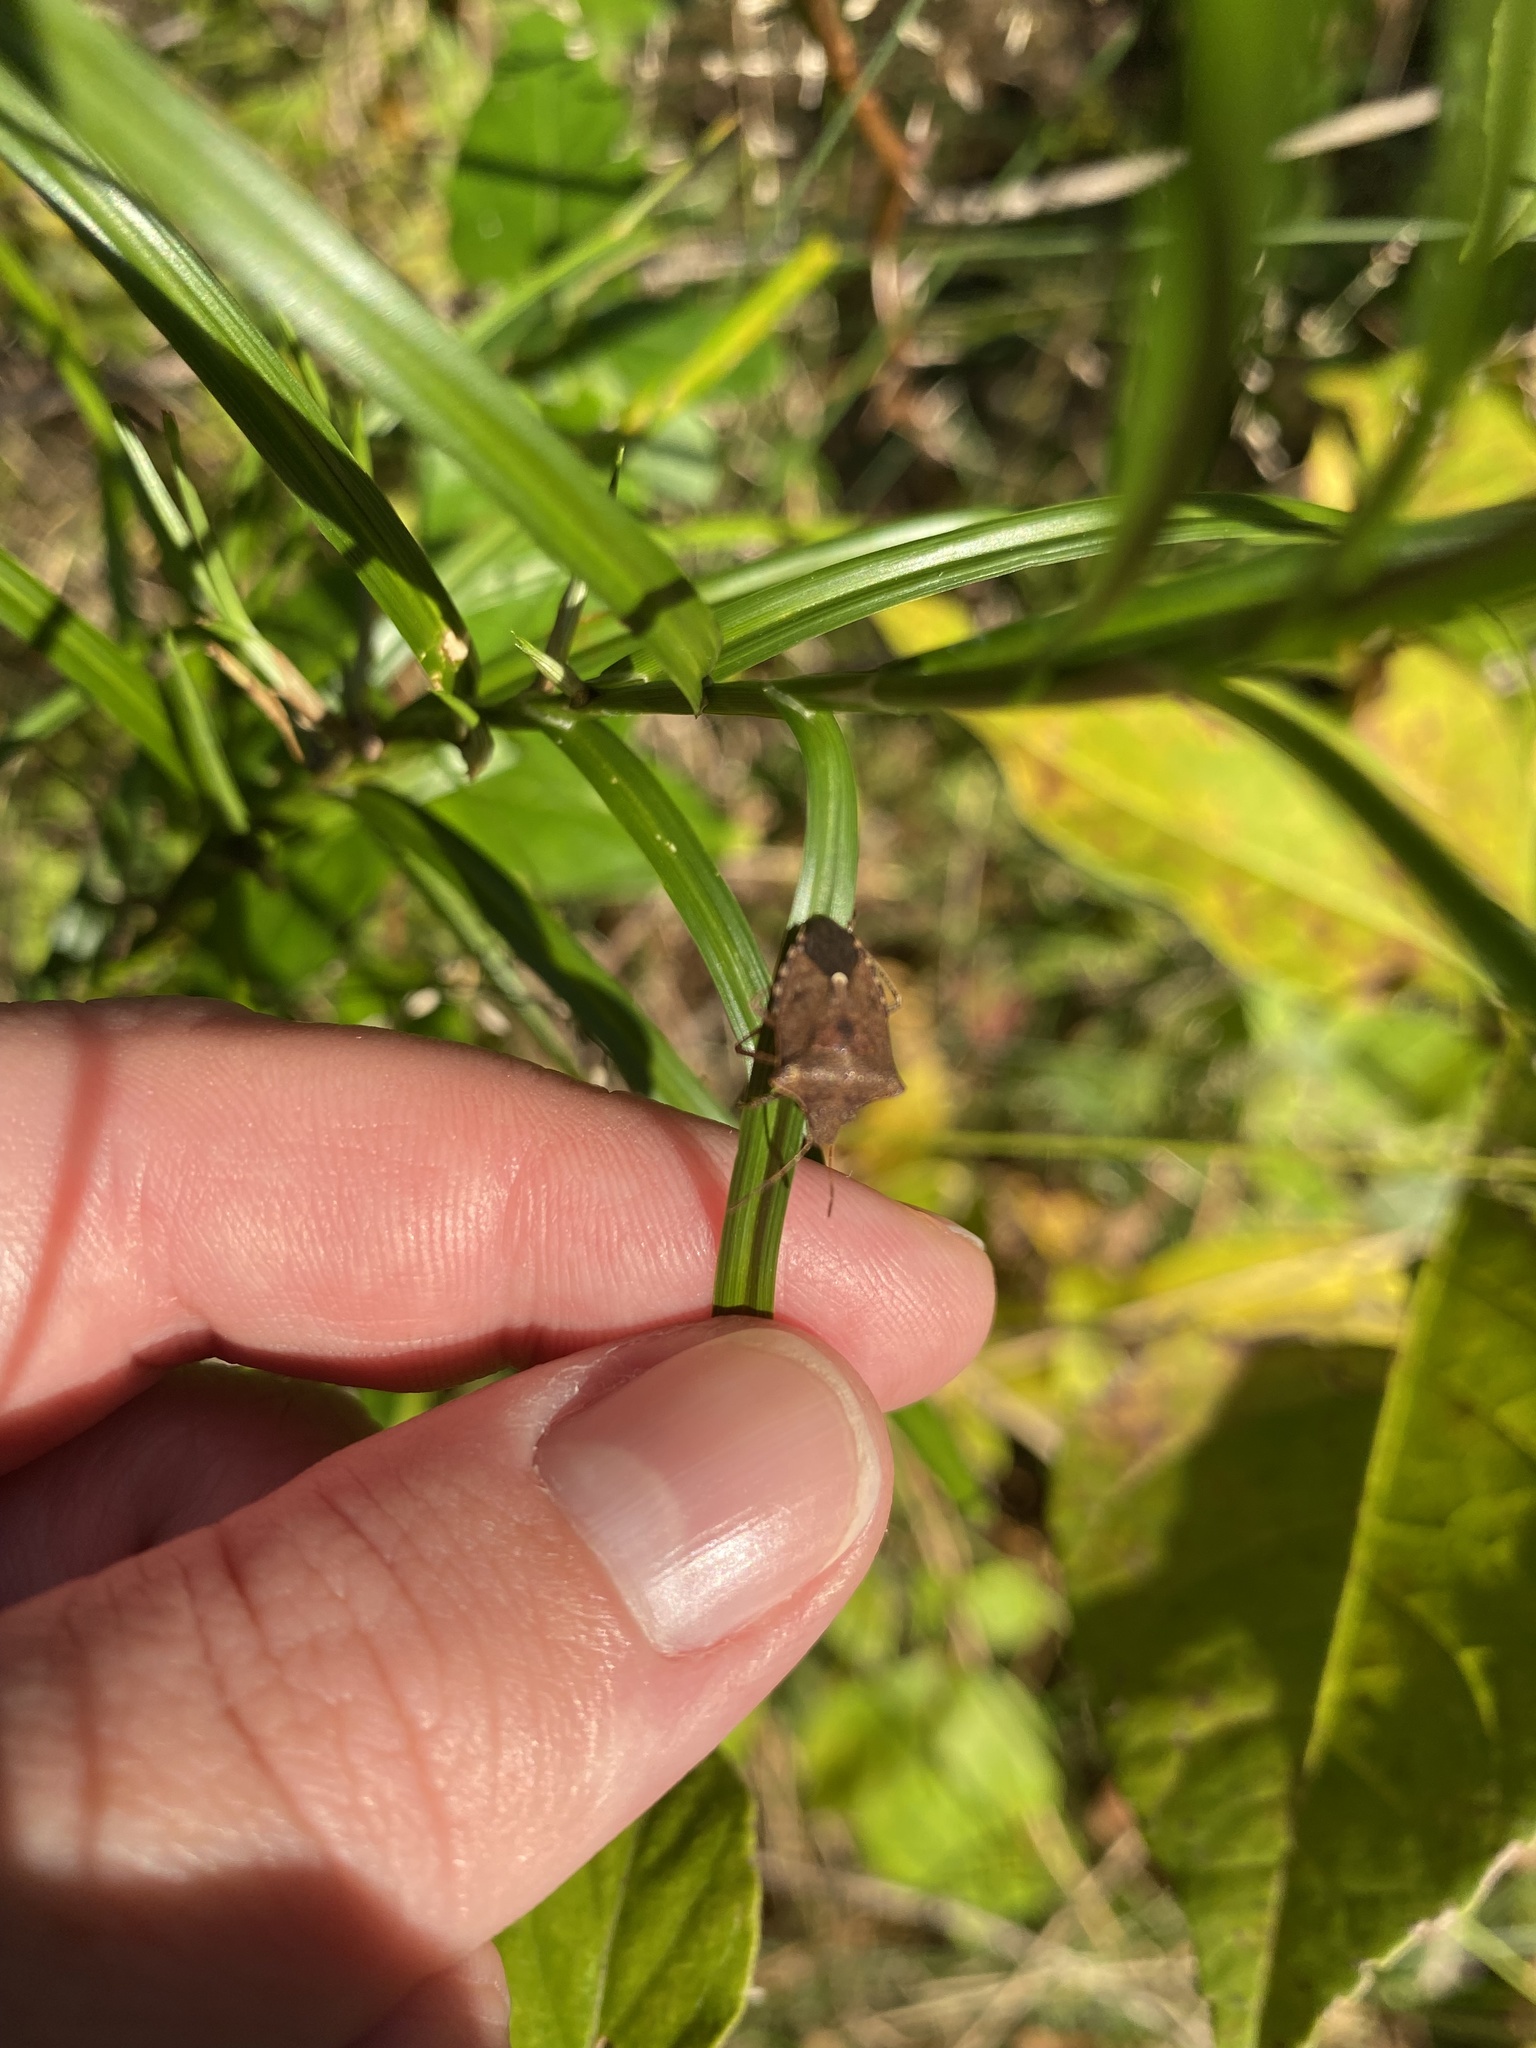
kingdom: Animalia
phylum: Arthropoda
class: Insecta
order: Hemiptera
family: Pentatomidae
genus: Euschistus
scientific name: Euschistus servus
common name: Brown stink bug
